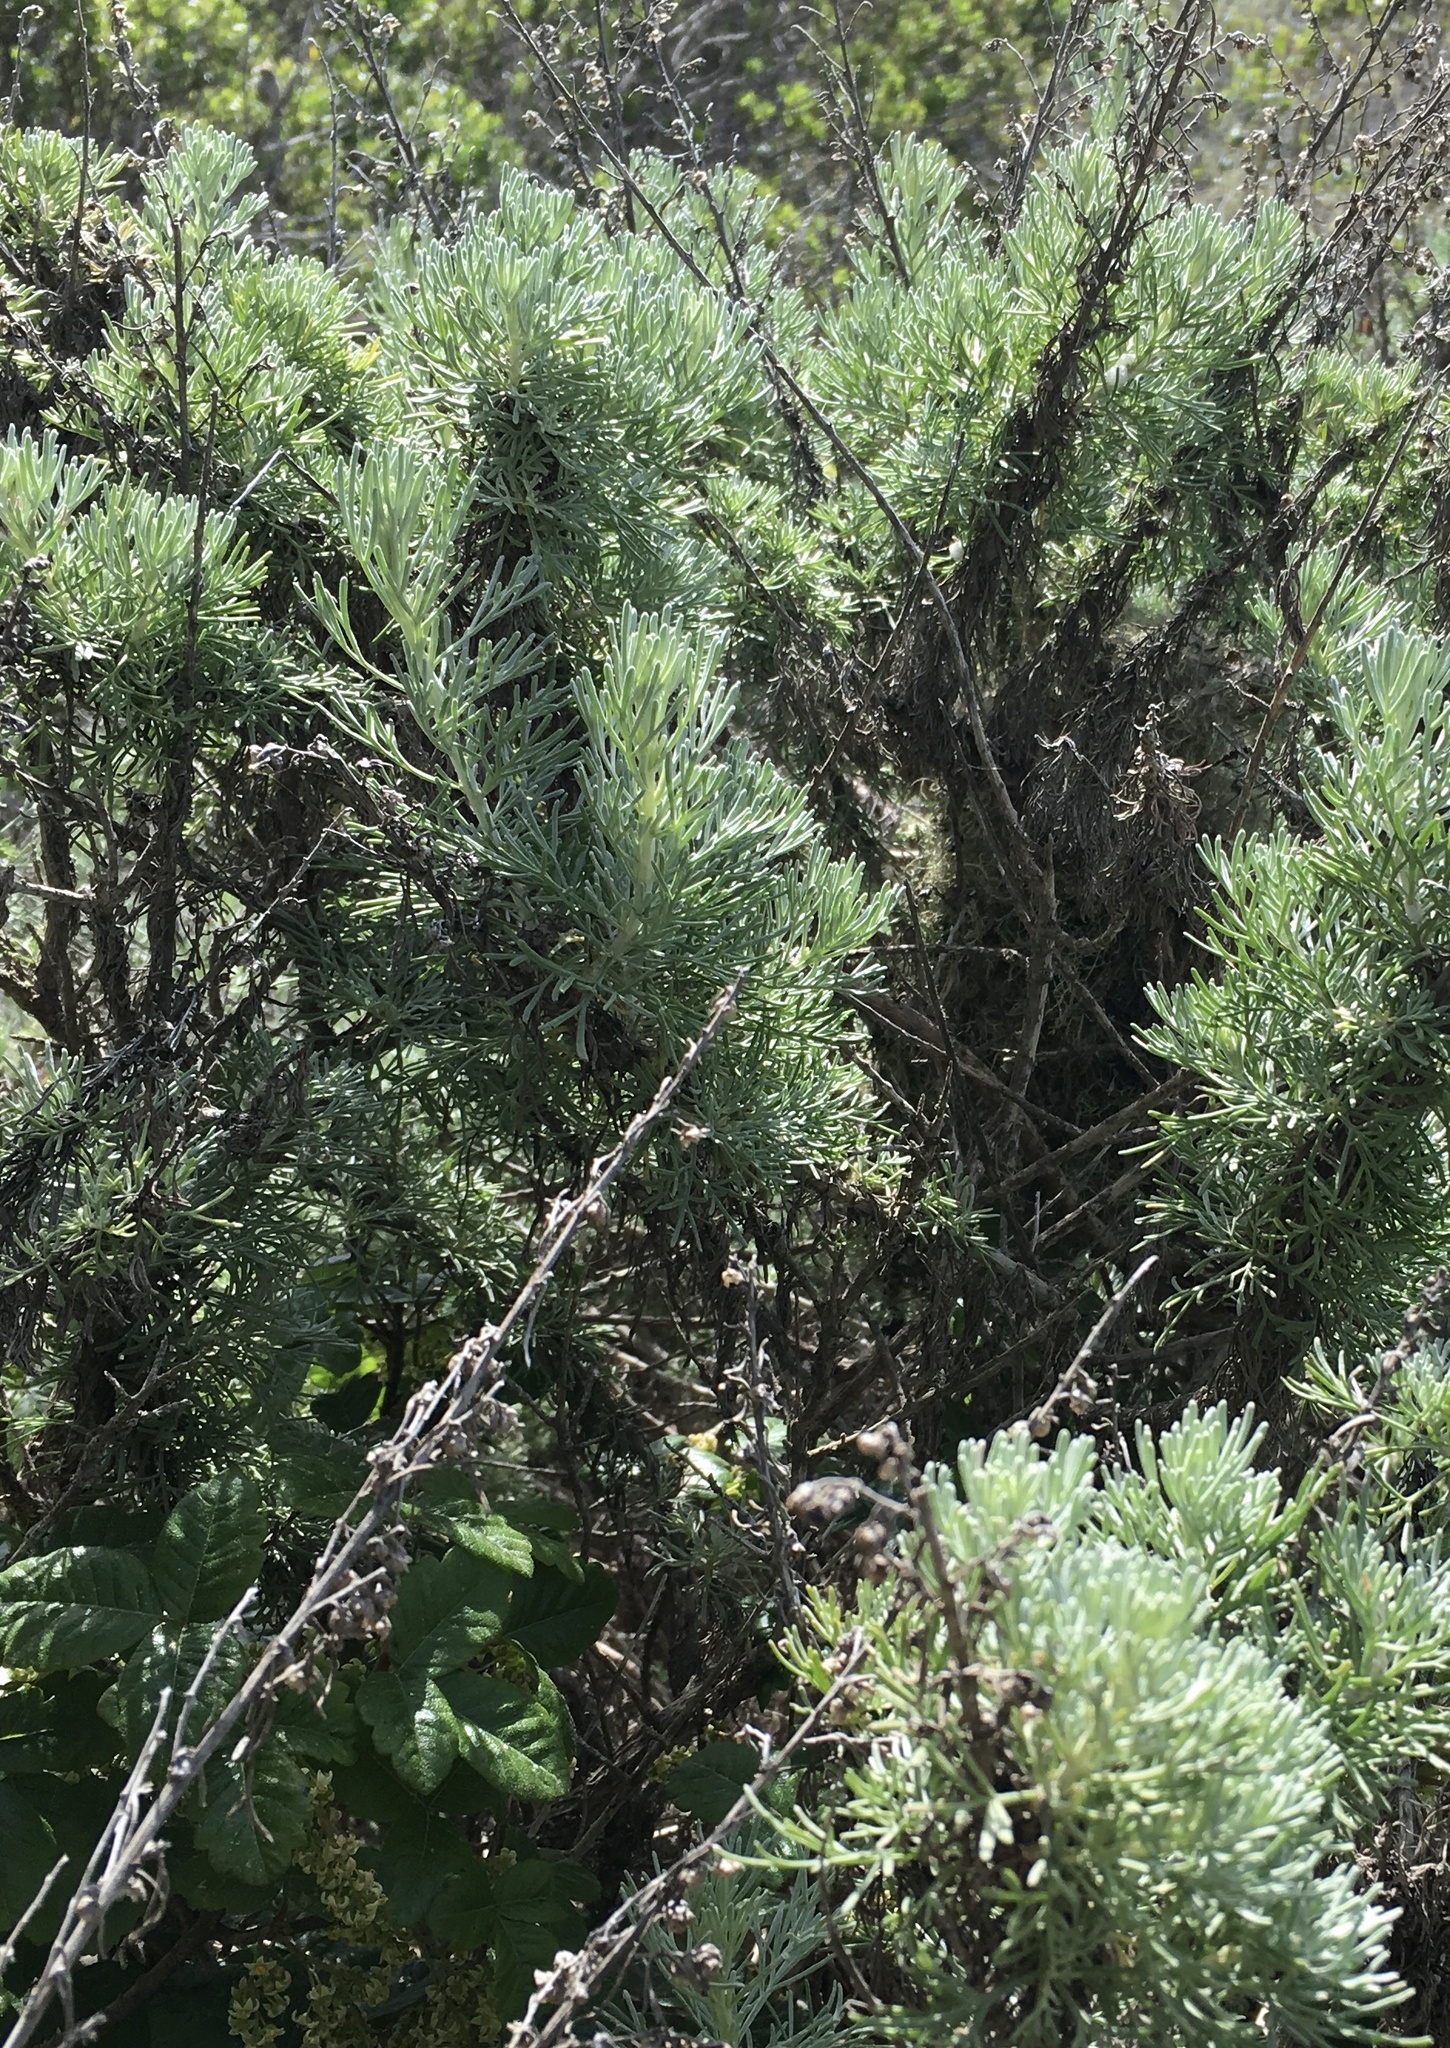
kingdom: Plantae
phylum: Tracheophyta
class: Magnoliopsida
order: Asterales
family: Asteraceae
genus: Artemisia
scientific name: Artemisia californica
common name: California sagebrush
